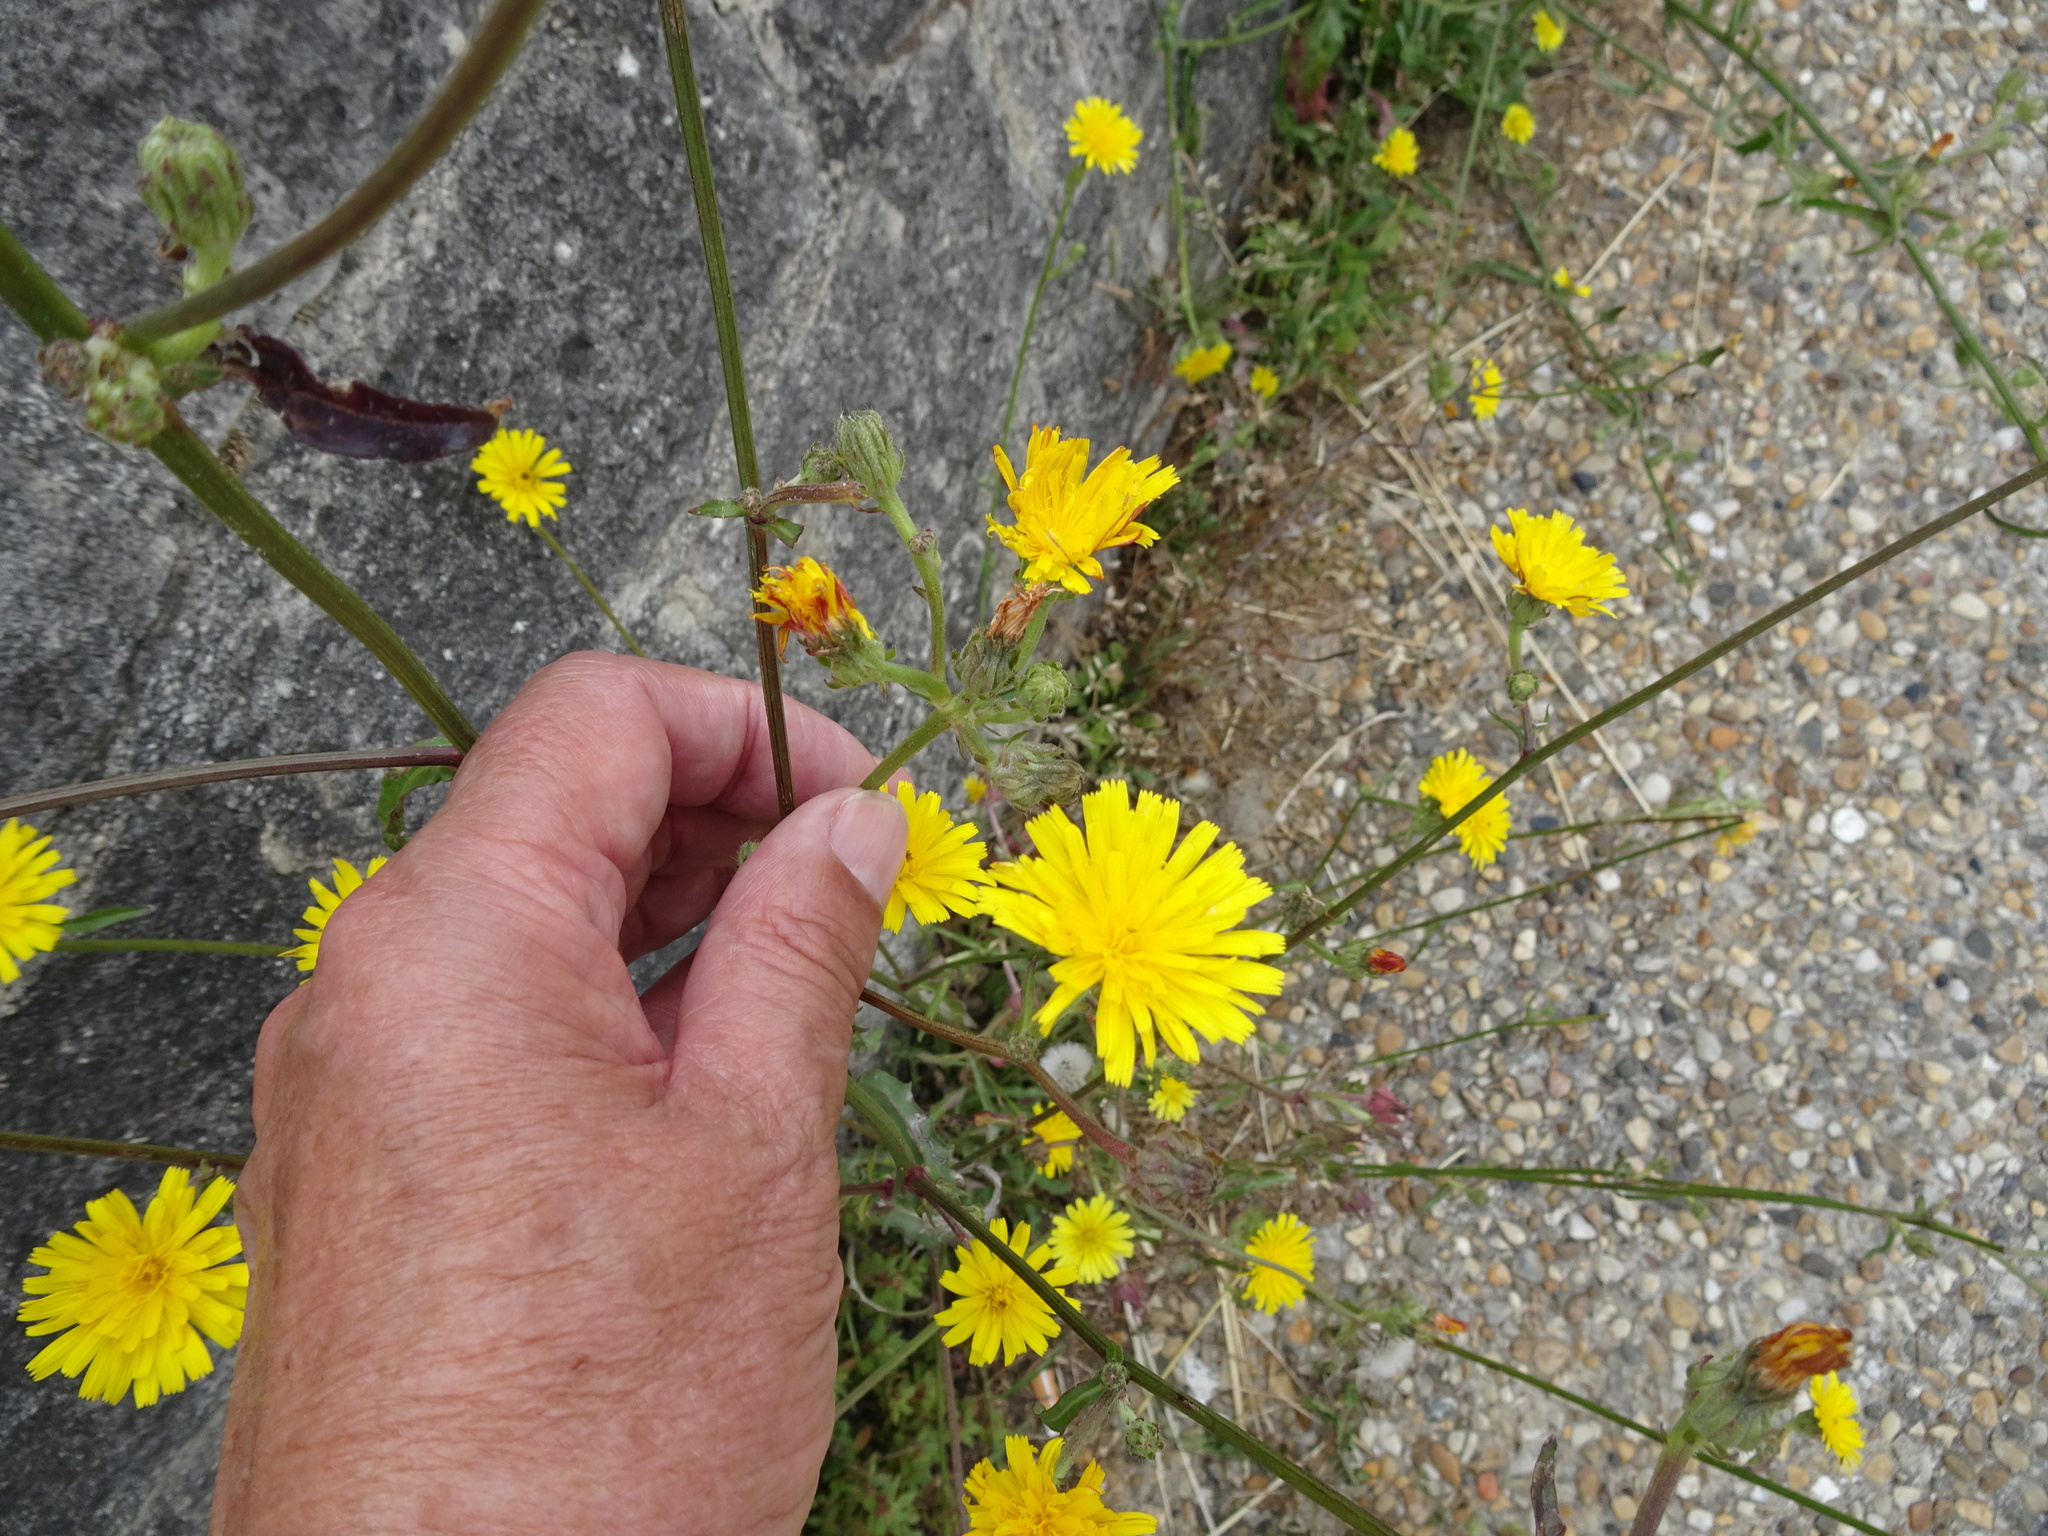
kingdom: Plantae
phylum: Tracheophyta
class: Magnoliopsida
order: Asterales
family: Asteraceae
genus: Picris
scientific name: Picris hieracioides
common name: Hawkweed oxtongue
